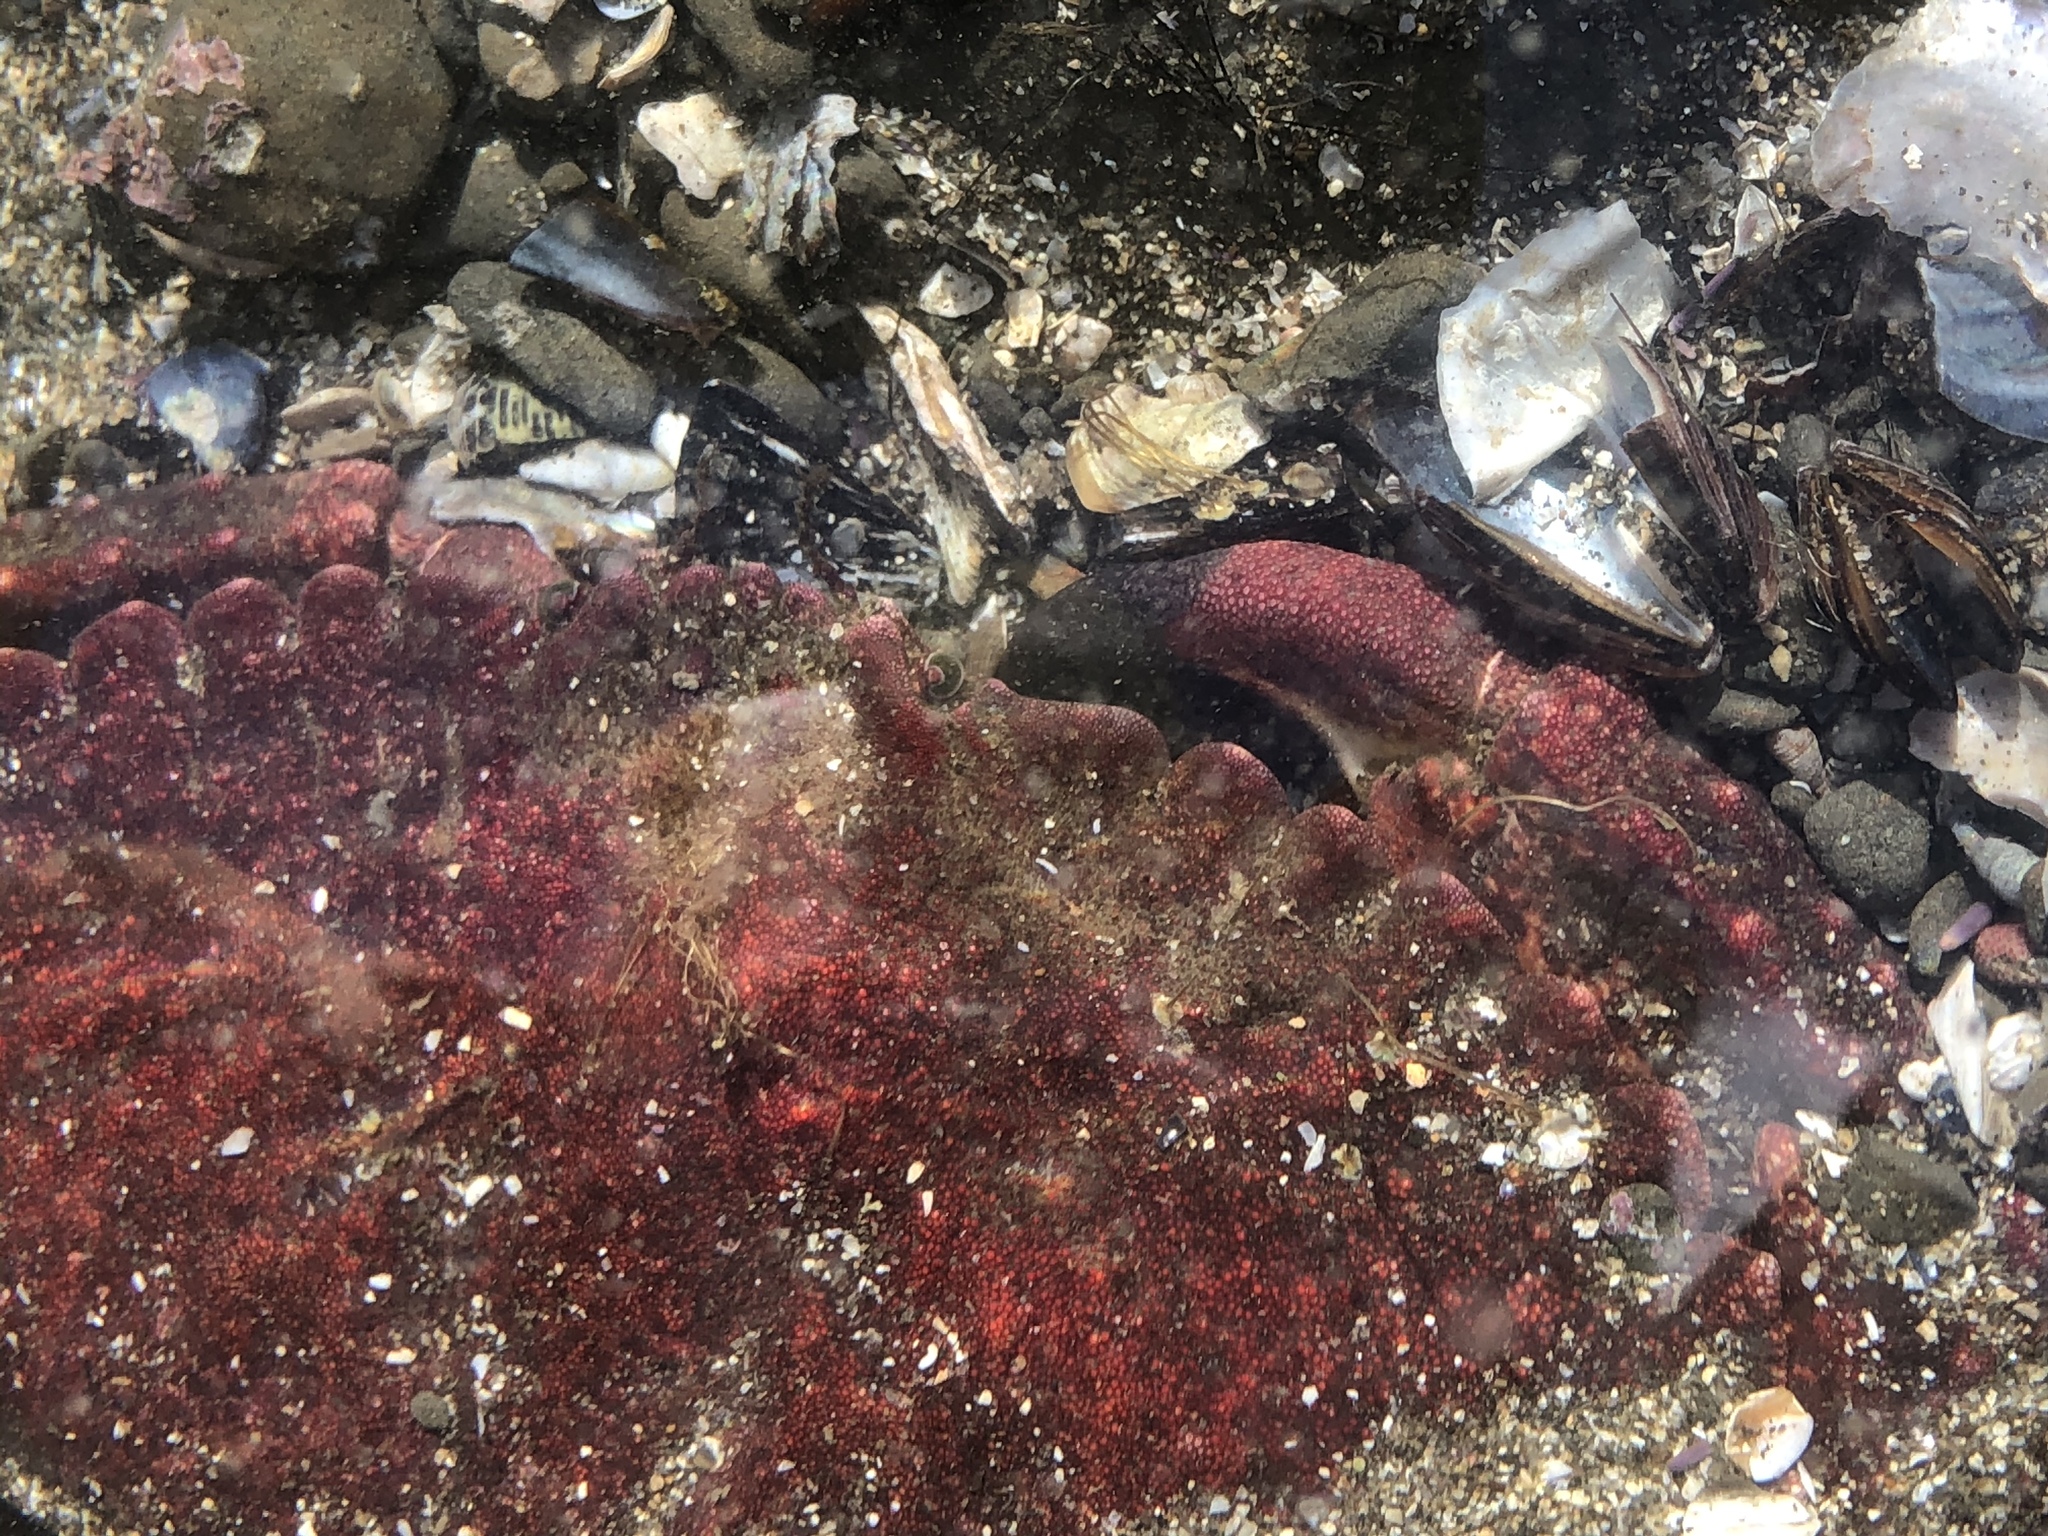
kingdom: Animalia
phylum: Arthropoda
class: Malacostraca
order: Decapoda
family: Cancridae
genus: Cancer
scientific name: Cancer productus
